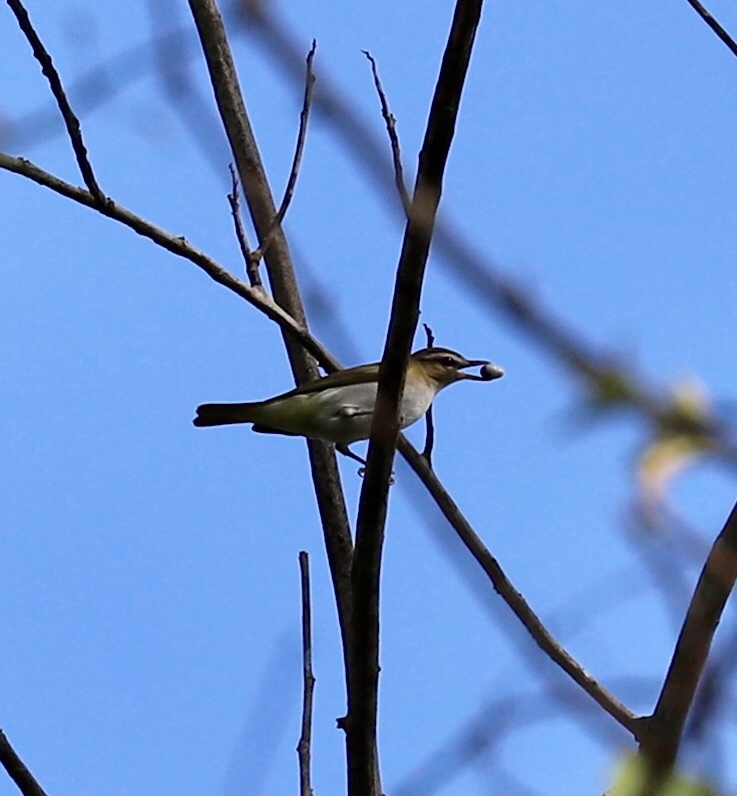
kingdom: Animalia
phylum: Chordata
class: Aves
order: Passeriformes
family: Vireonidae
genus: Vireo
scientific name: Vireo olivaceus
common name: Red-eyed vireo
